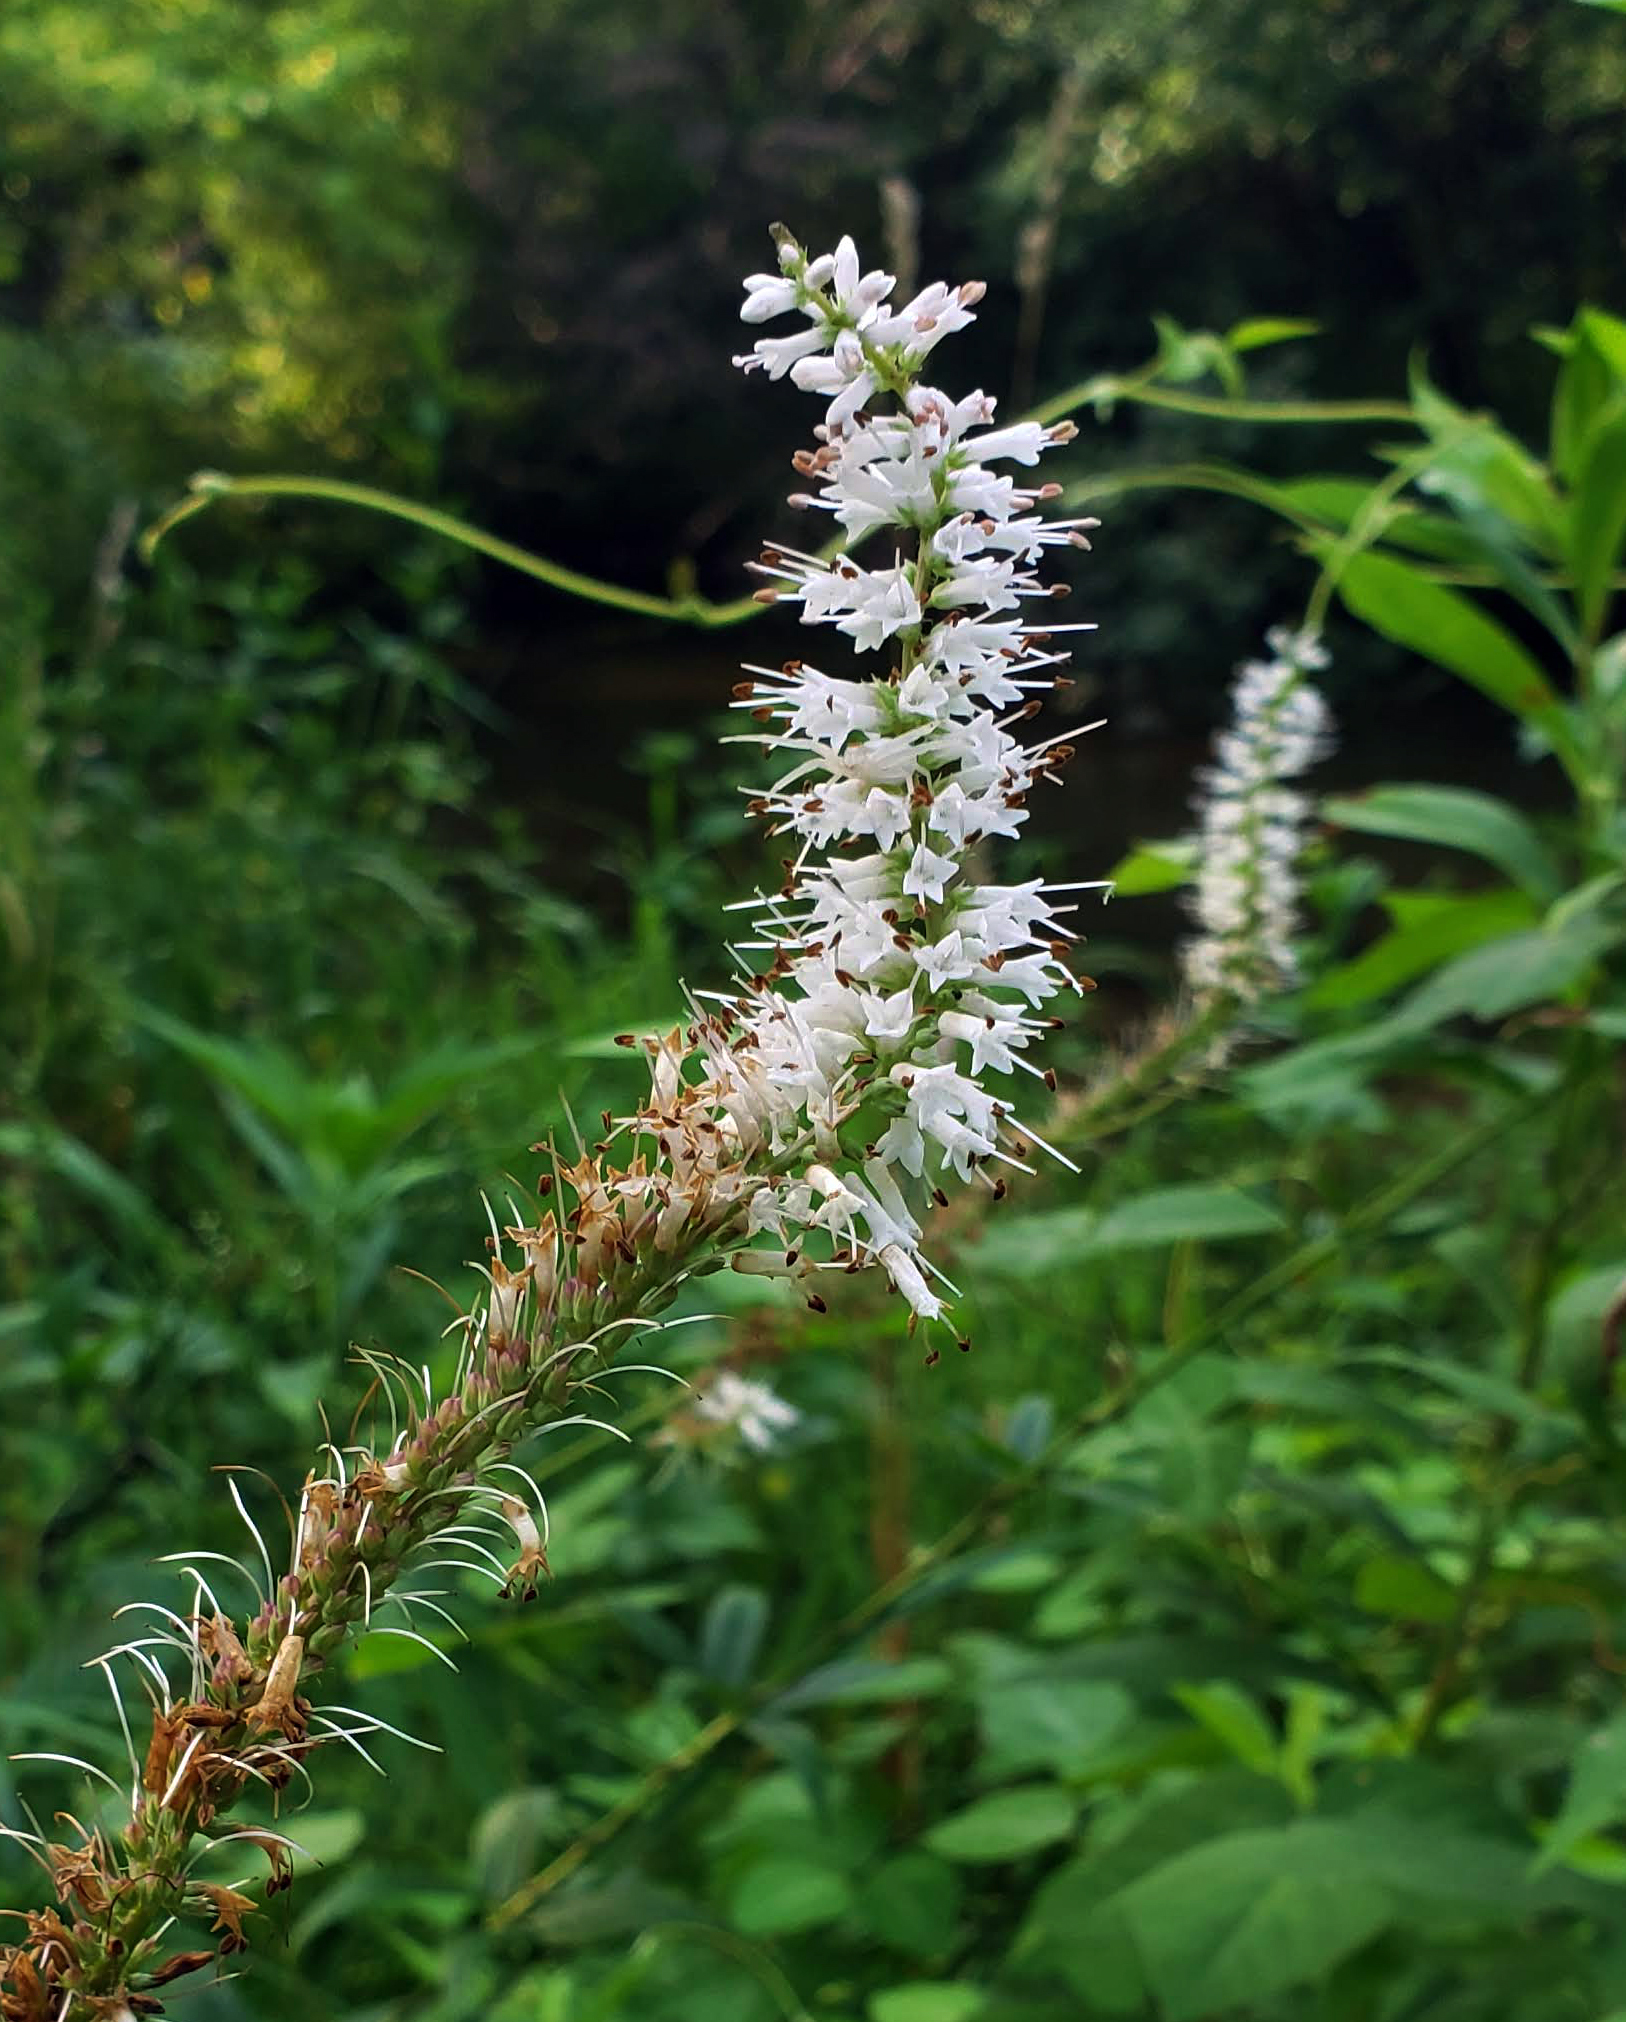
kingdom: Plantae
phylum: Tracheophyta
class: Magnoliopsida
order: Lamiales
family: Plantaginaceae
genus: Veronicastrum
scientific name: Veronicastrum virginicum
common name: Blackroot
